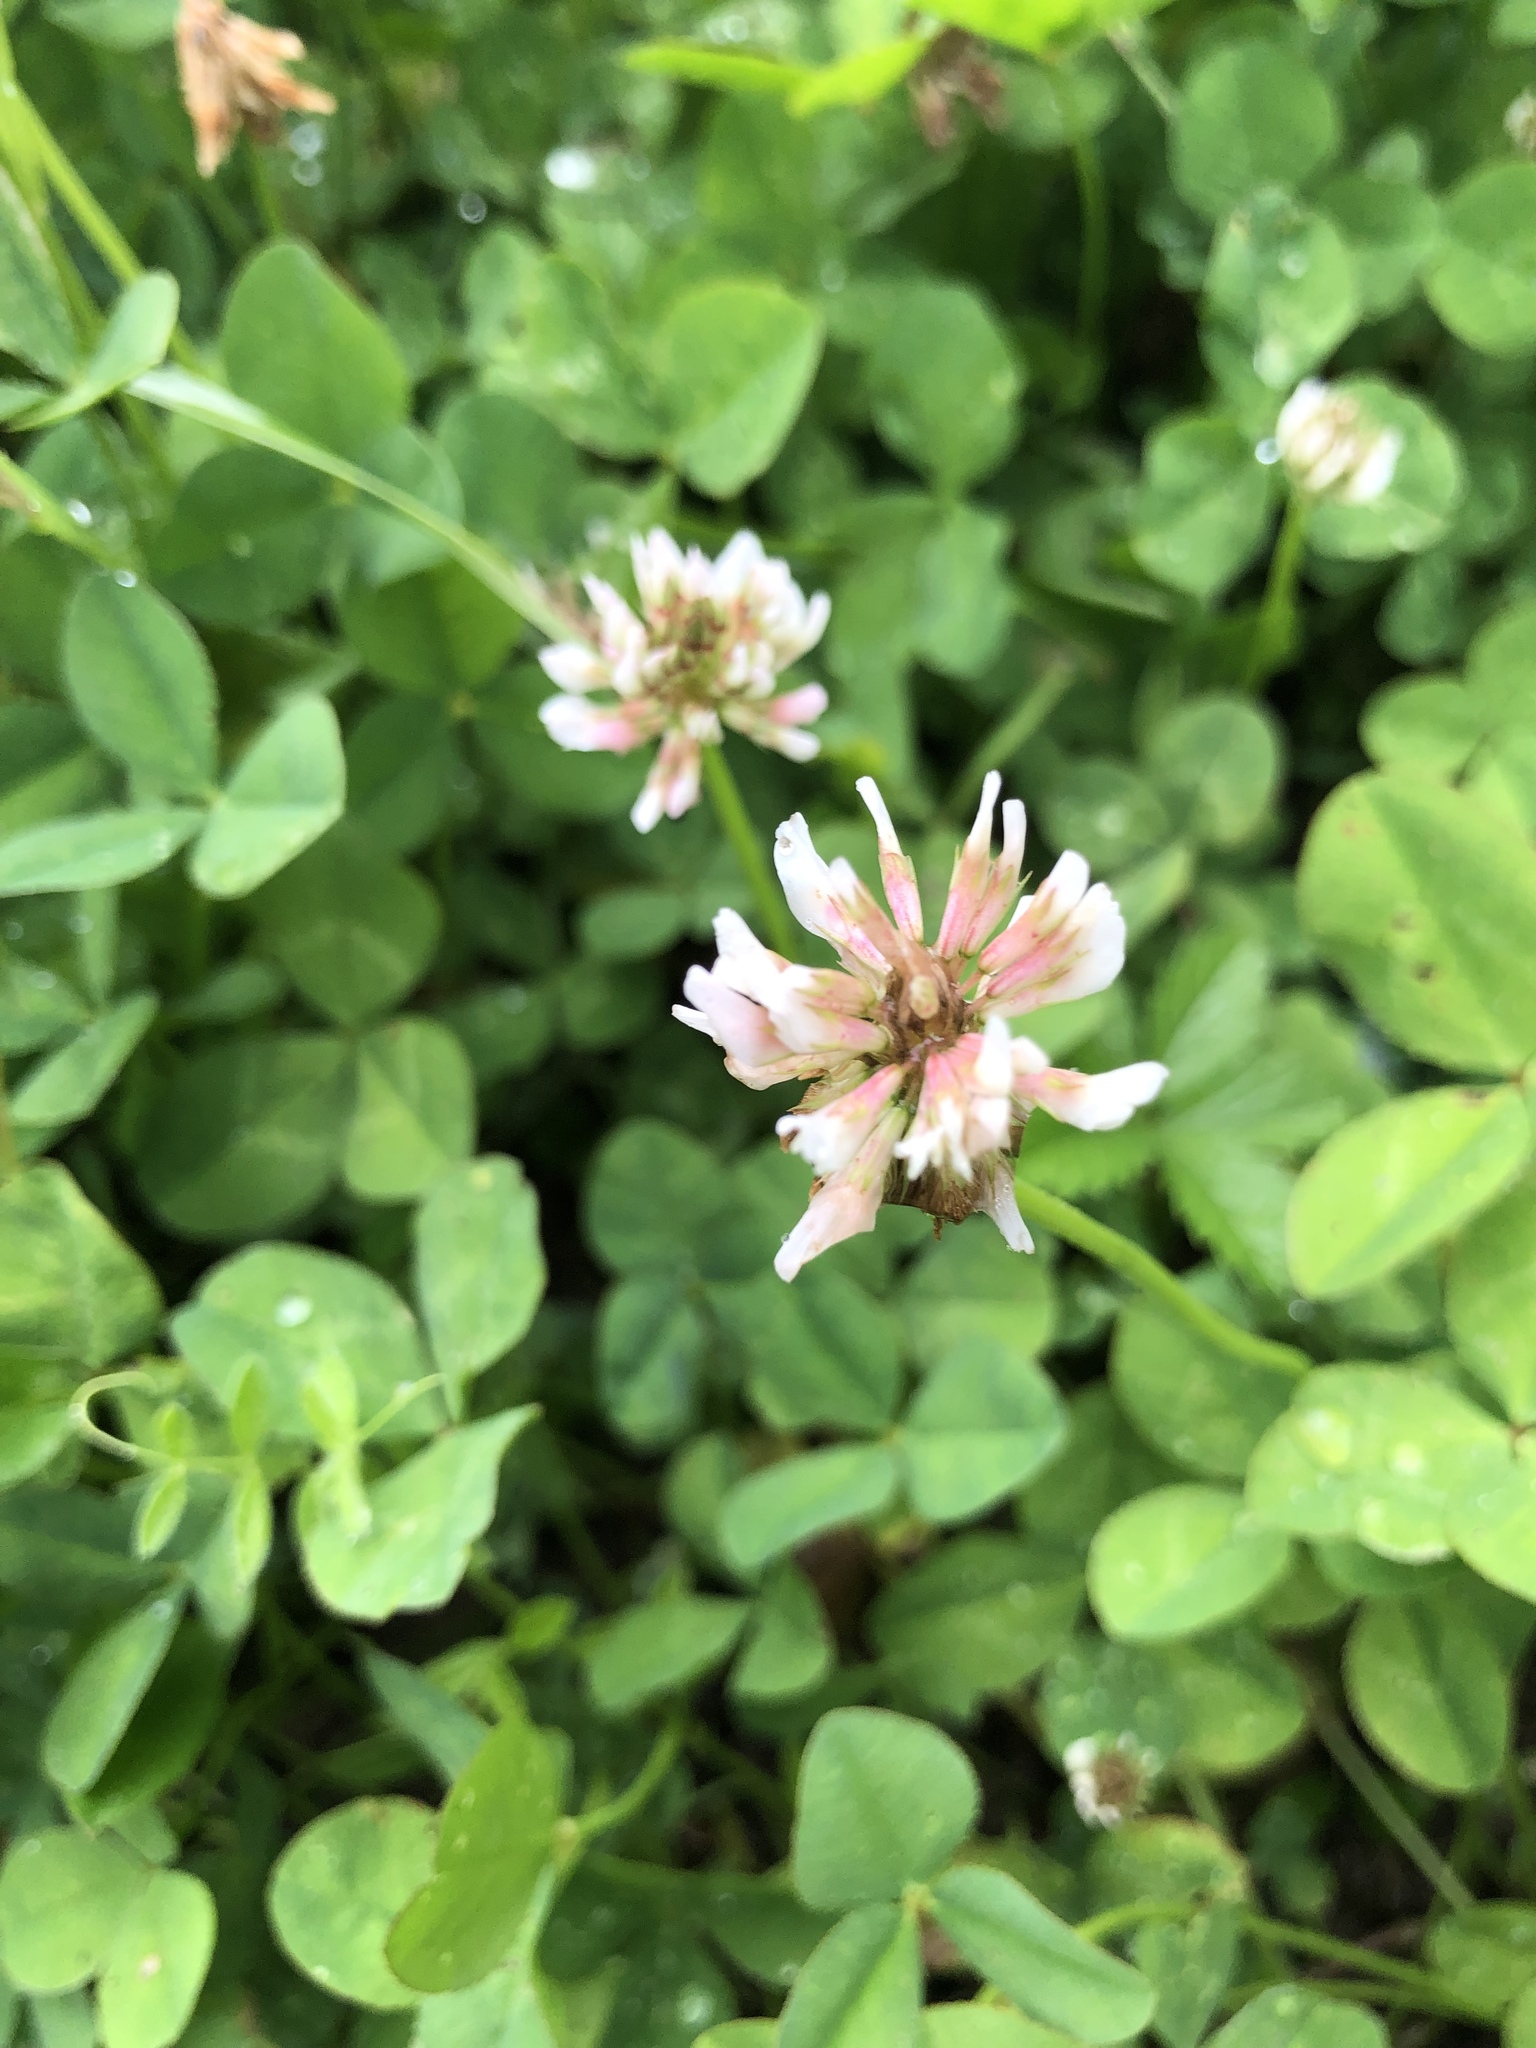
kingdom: Plantae
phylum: Tracheophyta
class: Magnoliopsida
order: Fabales
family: Fabaceae
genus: Trifolium
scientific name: Trifolium repens
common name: White clover
